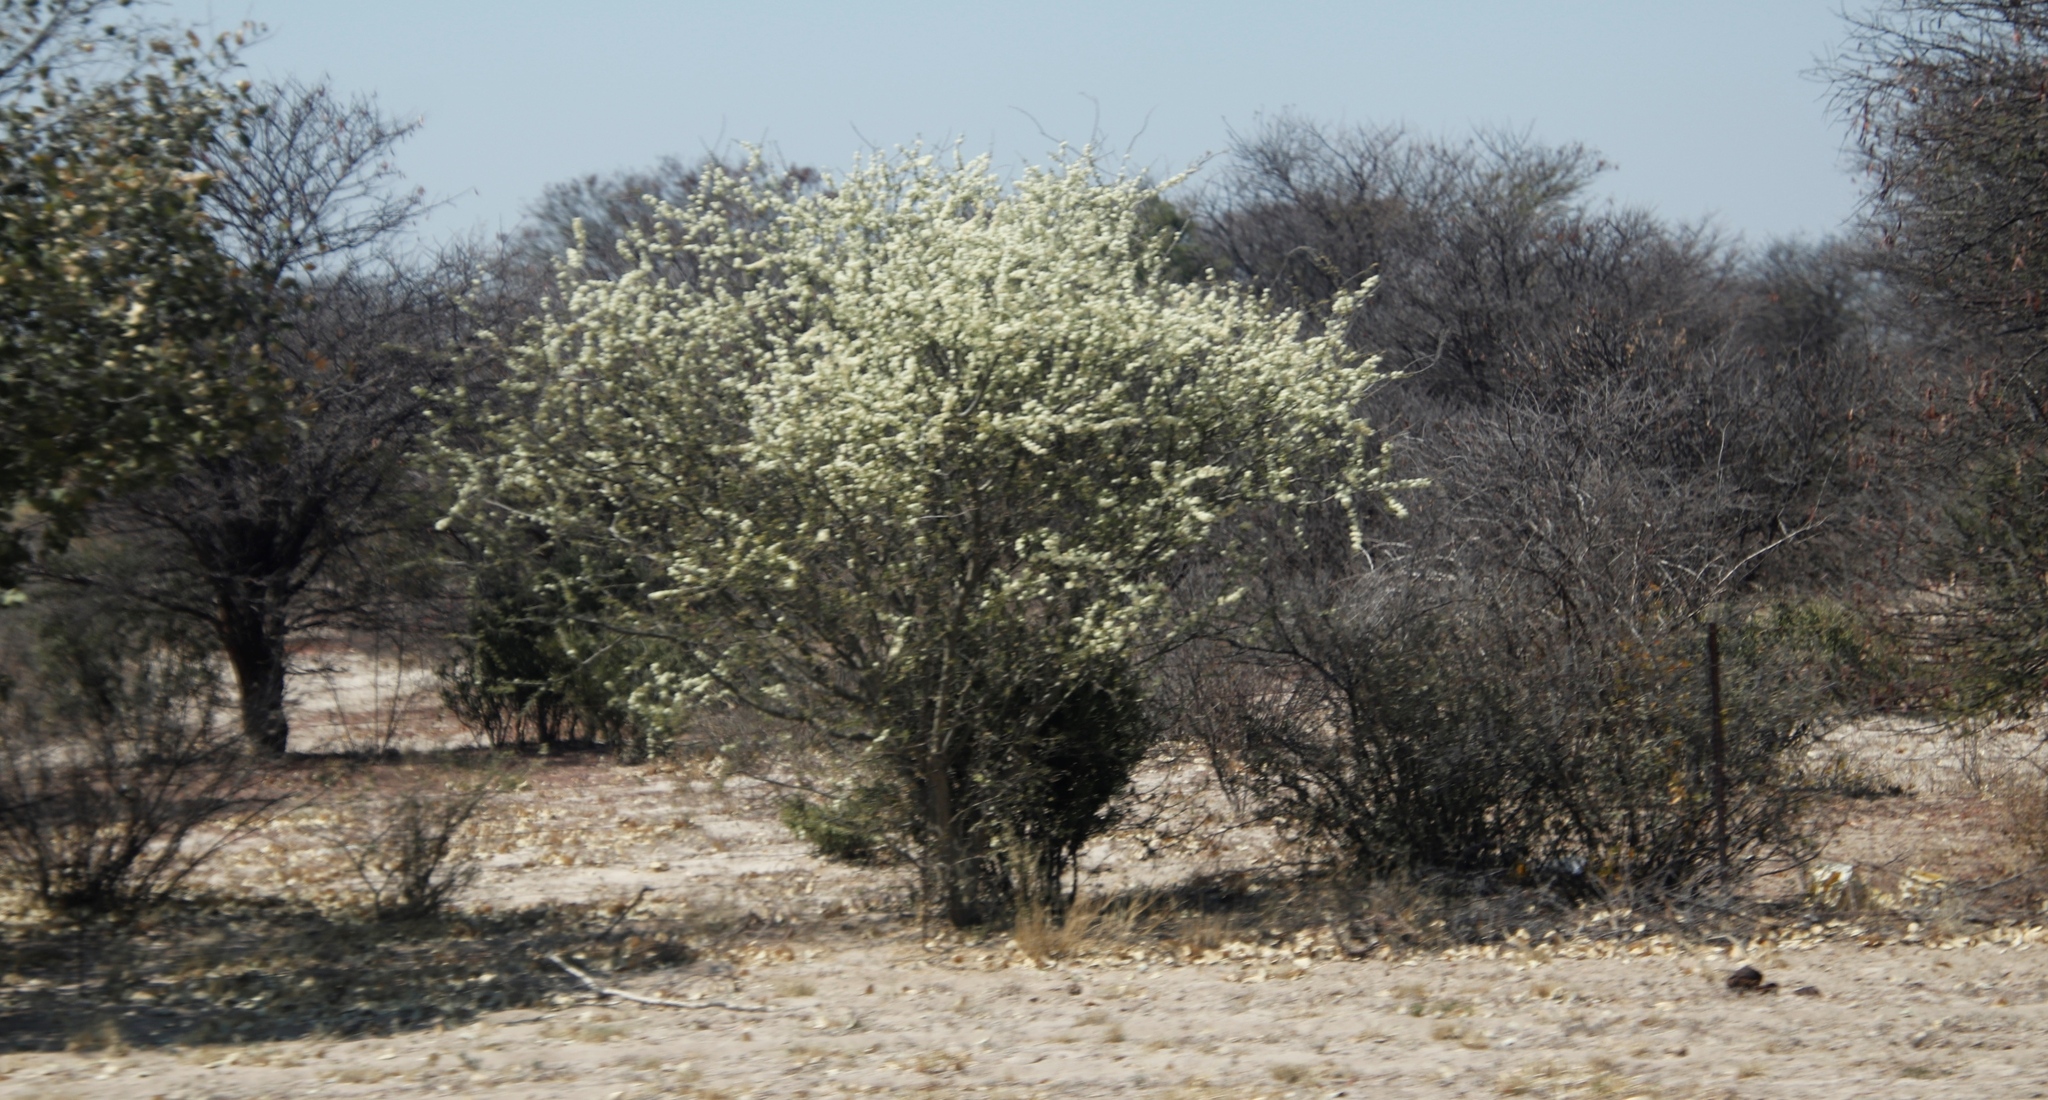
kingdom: Plantae
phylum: Tracheophyta
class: Magnoliopsida
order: Fabales
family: Fabaceae
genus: Senegalia
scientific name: Senegalia mellifera
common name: Hookthorn
